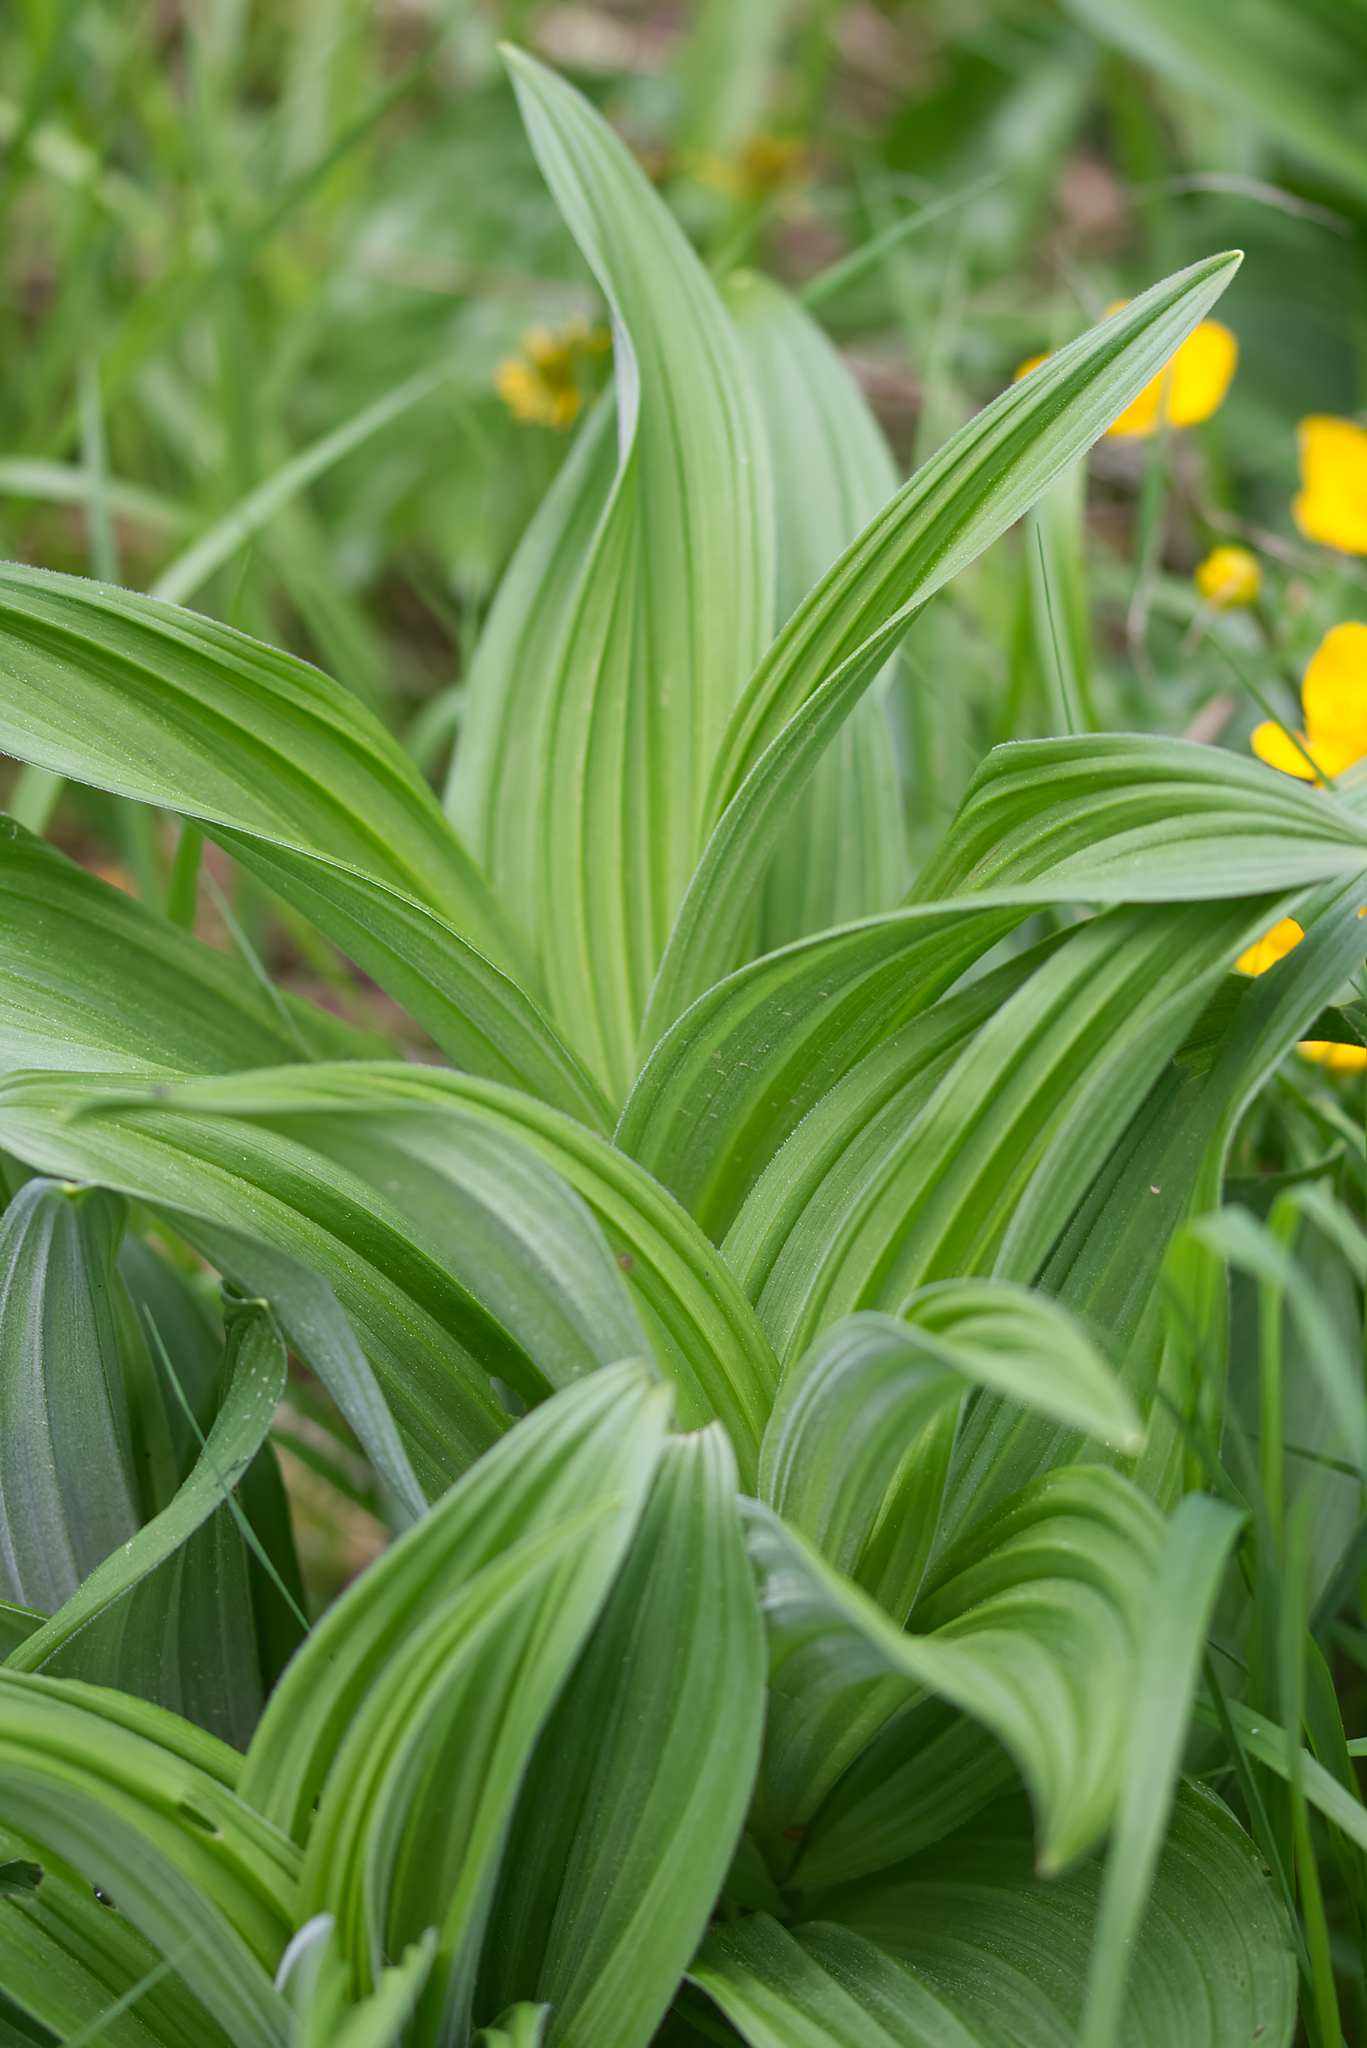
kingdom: Plantae
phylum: Tracheophyta
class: Liliopsida
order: Liliales
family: Melanthiaceae
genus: Veratrum
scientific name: Veratrum album
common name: White veratrum
